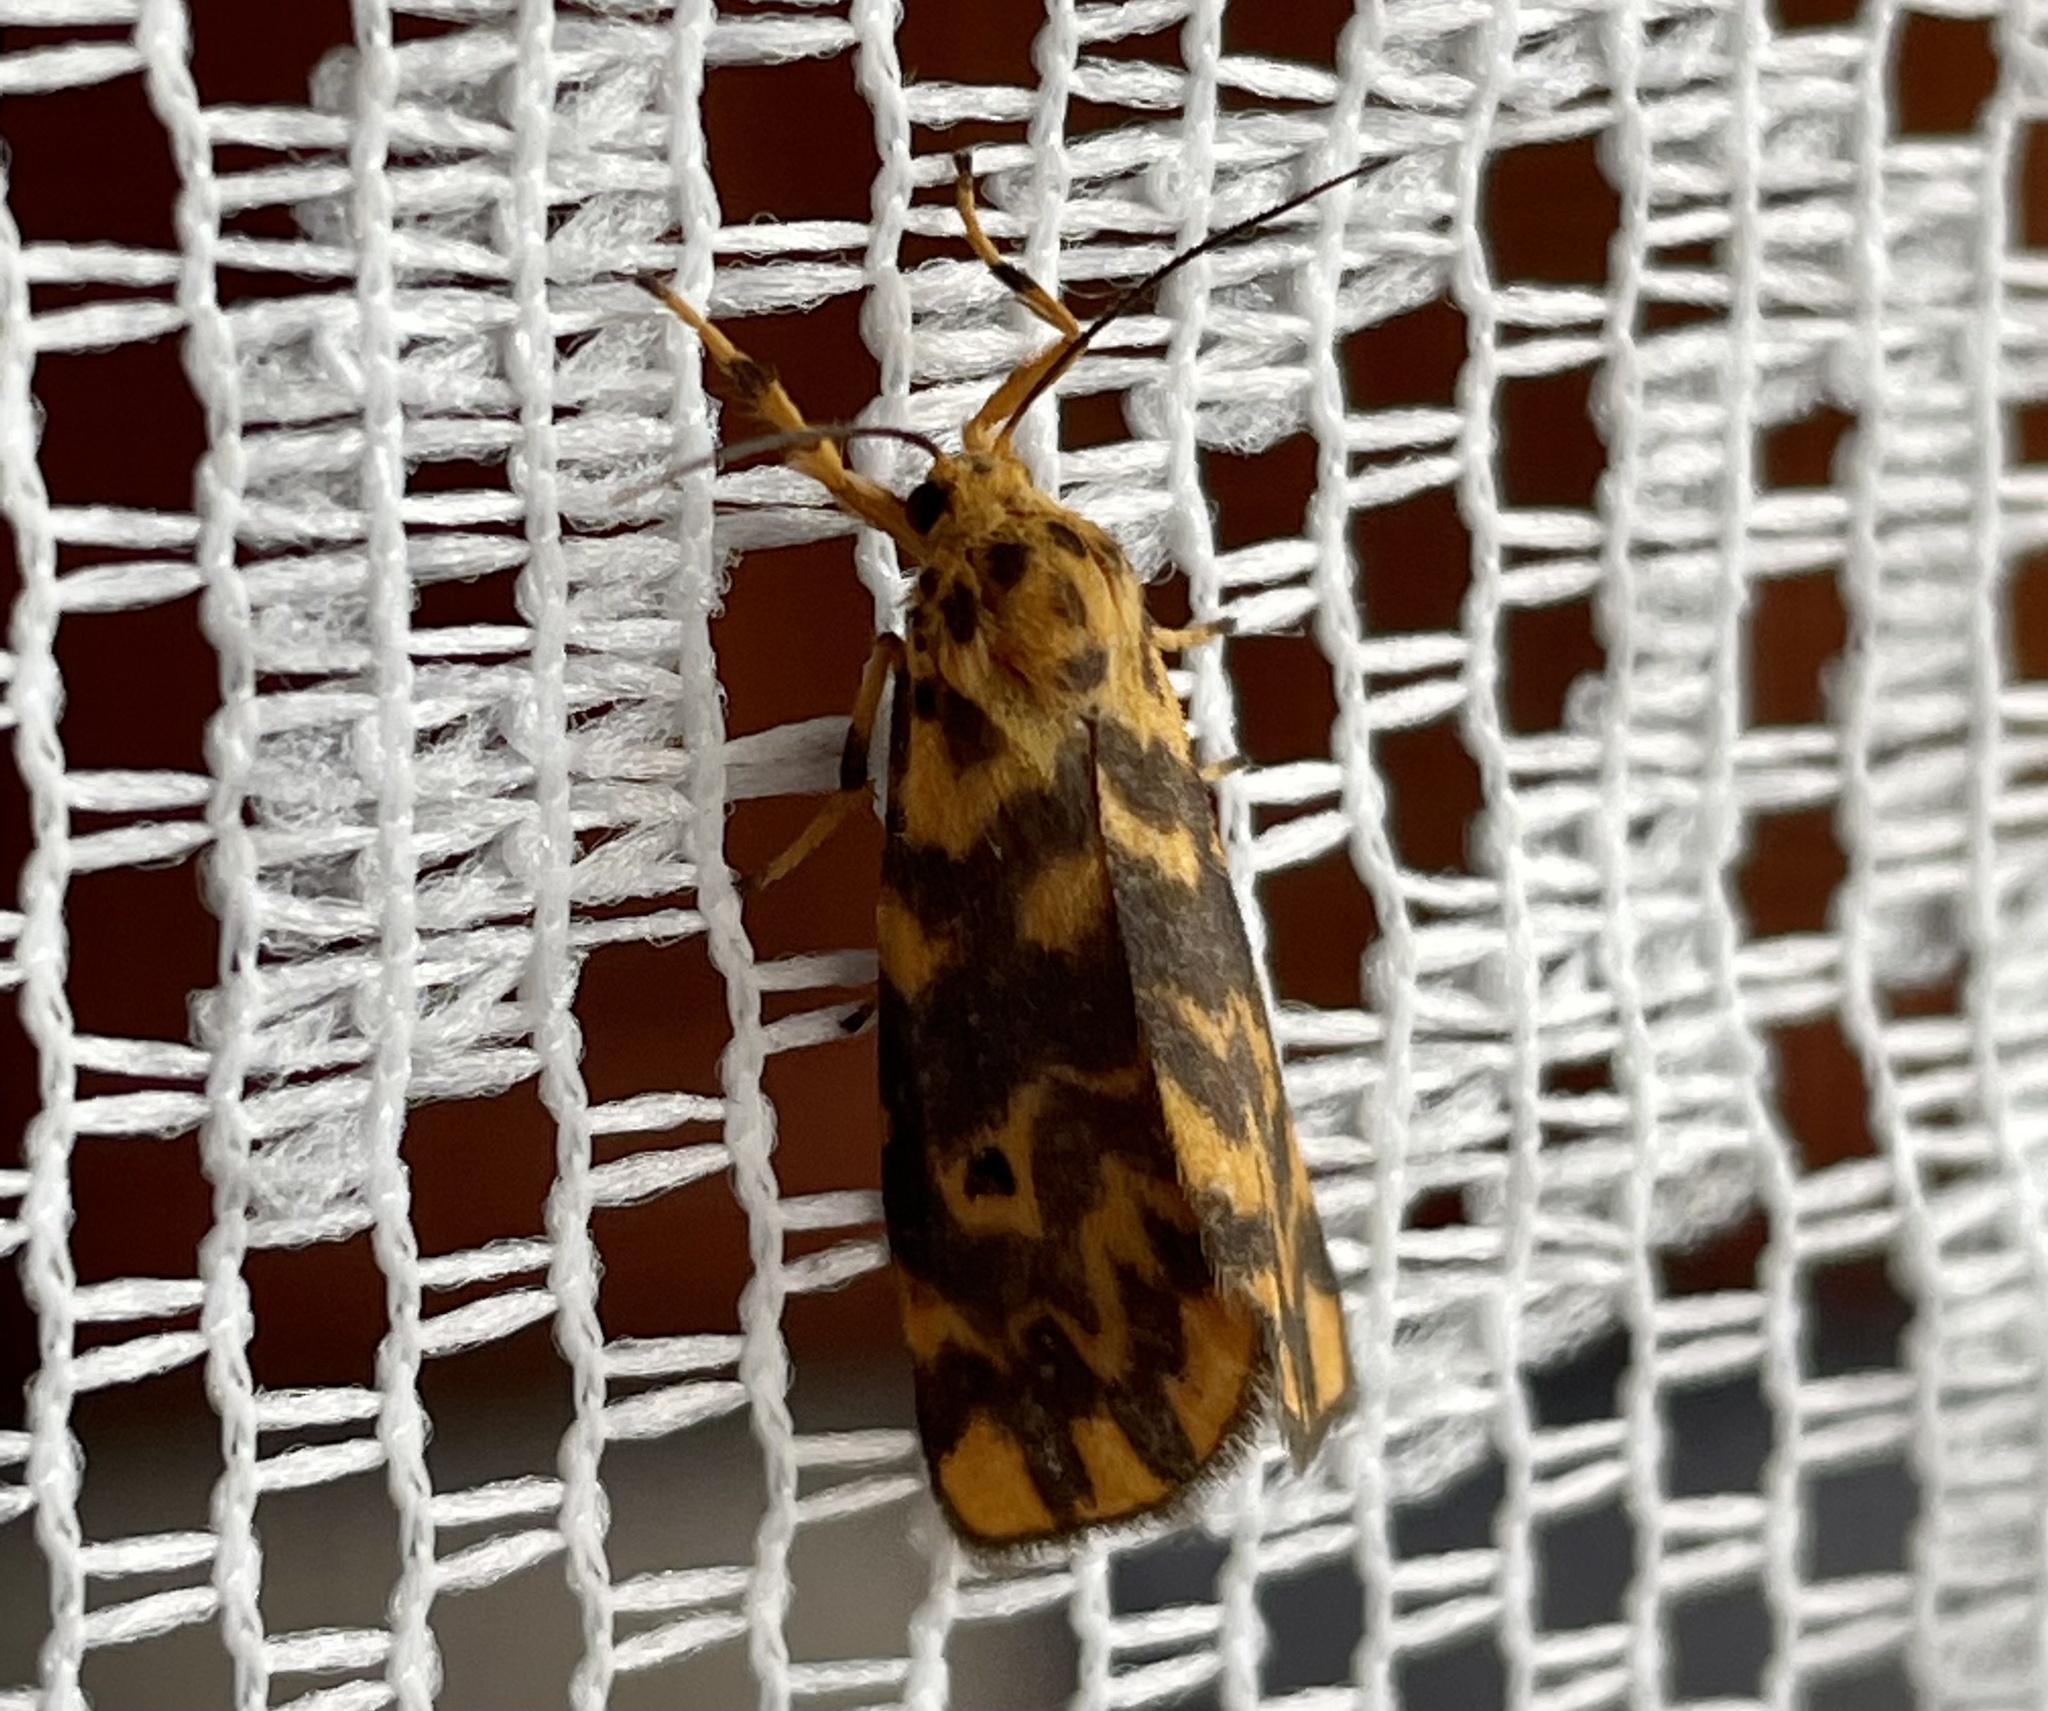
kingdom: Animalia
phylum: Arthropoda
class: Insecta
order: Lepidoptera
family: Erebidae
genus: Nepita
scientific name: Nepita conferta
